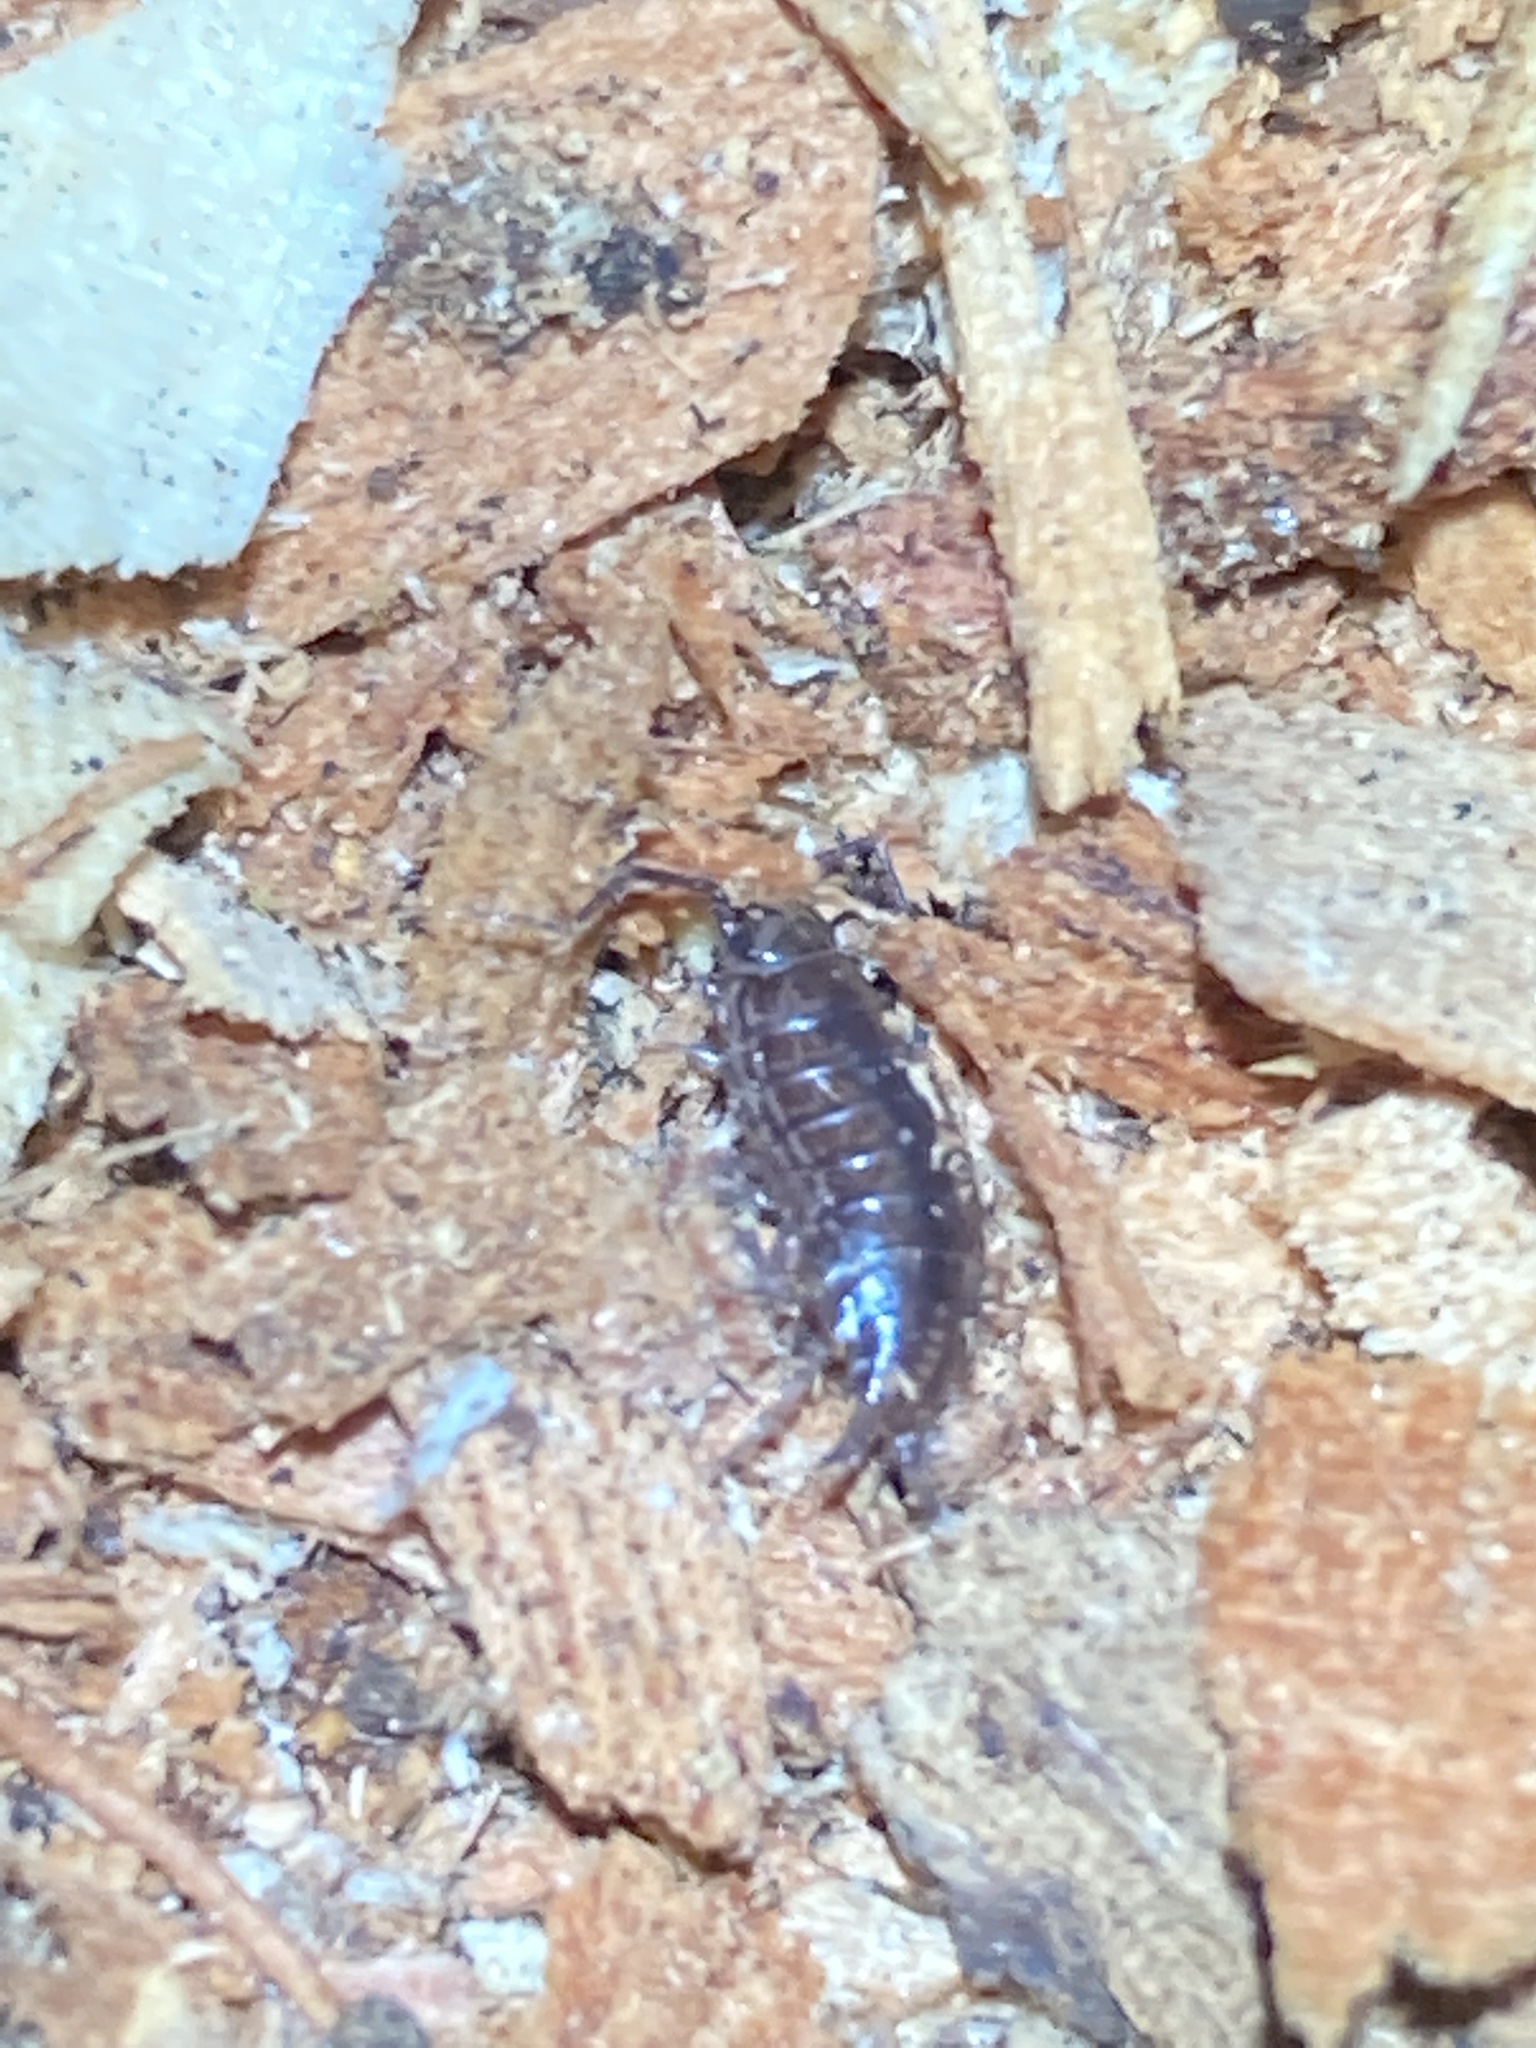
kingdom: Animalia
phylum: Arthropoda
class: Malacostraca
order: Isopoda
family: Philosciidae
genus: Atlantoscia
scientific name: Atlantoscia floridana
